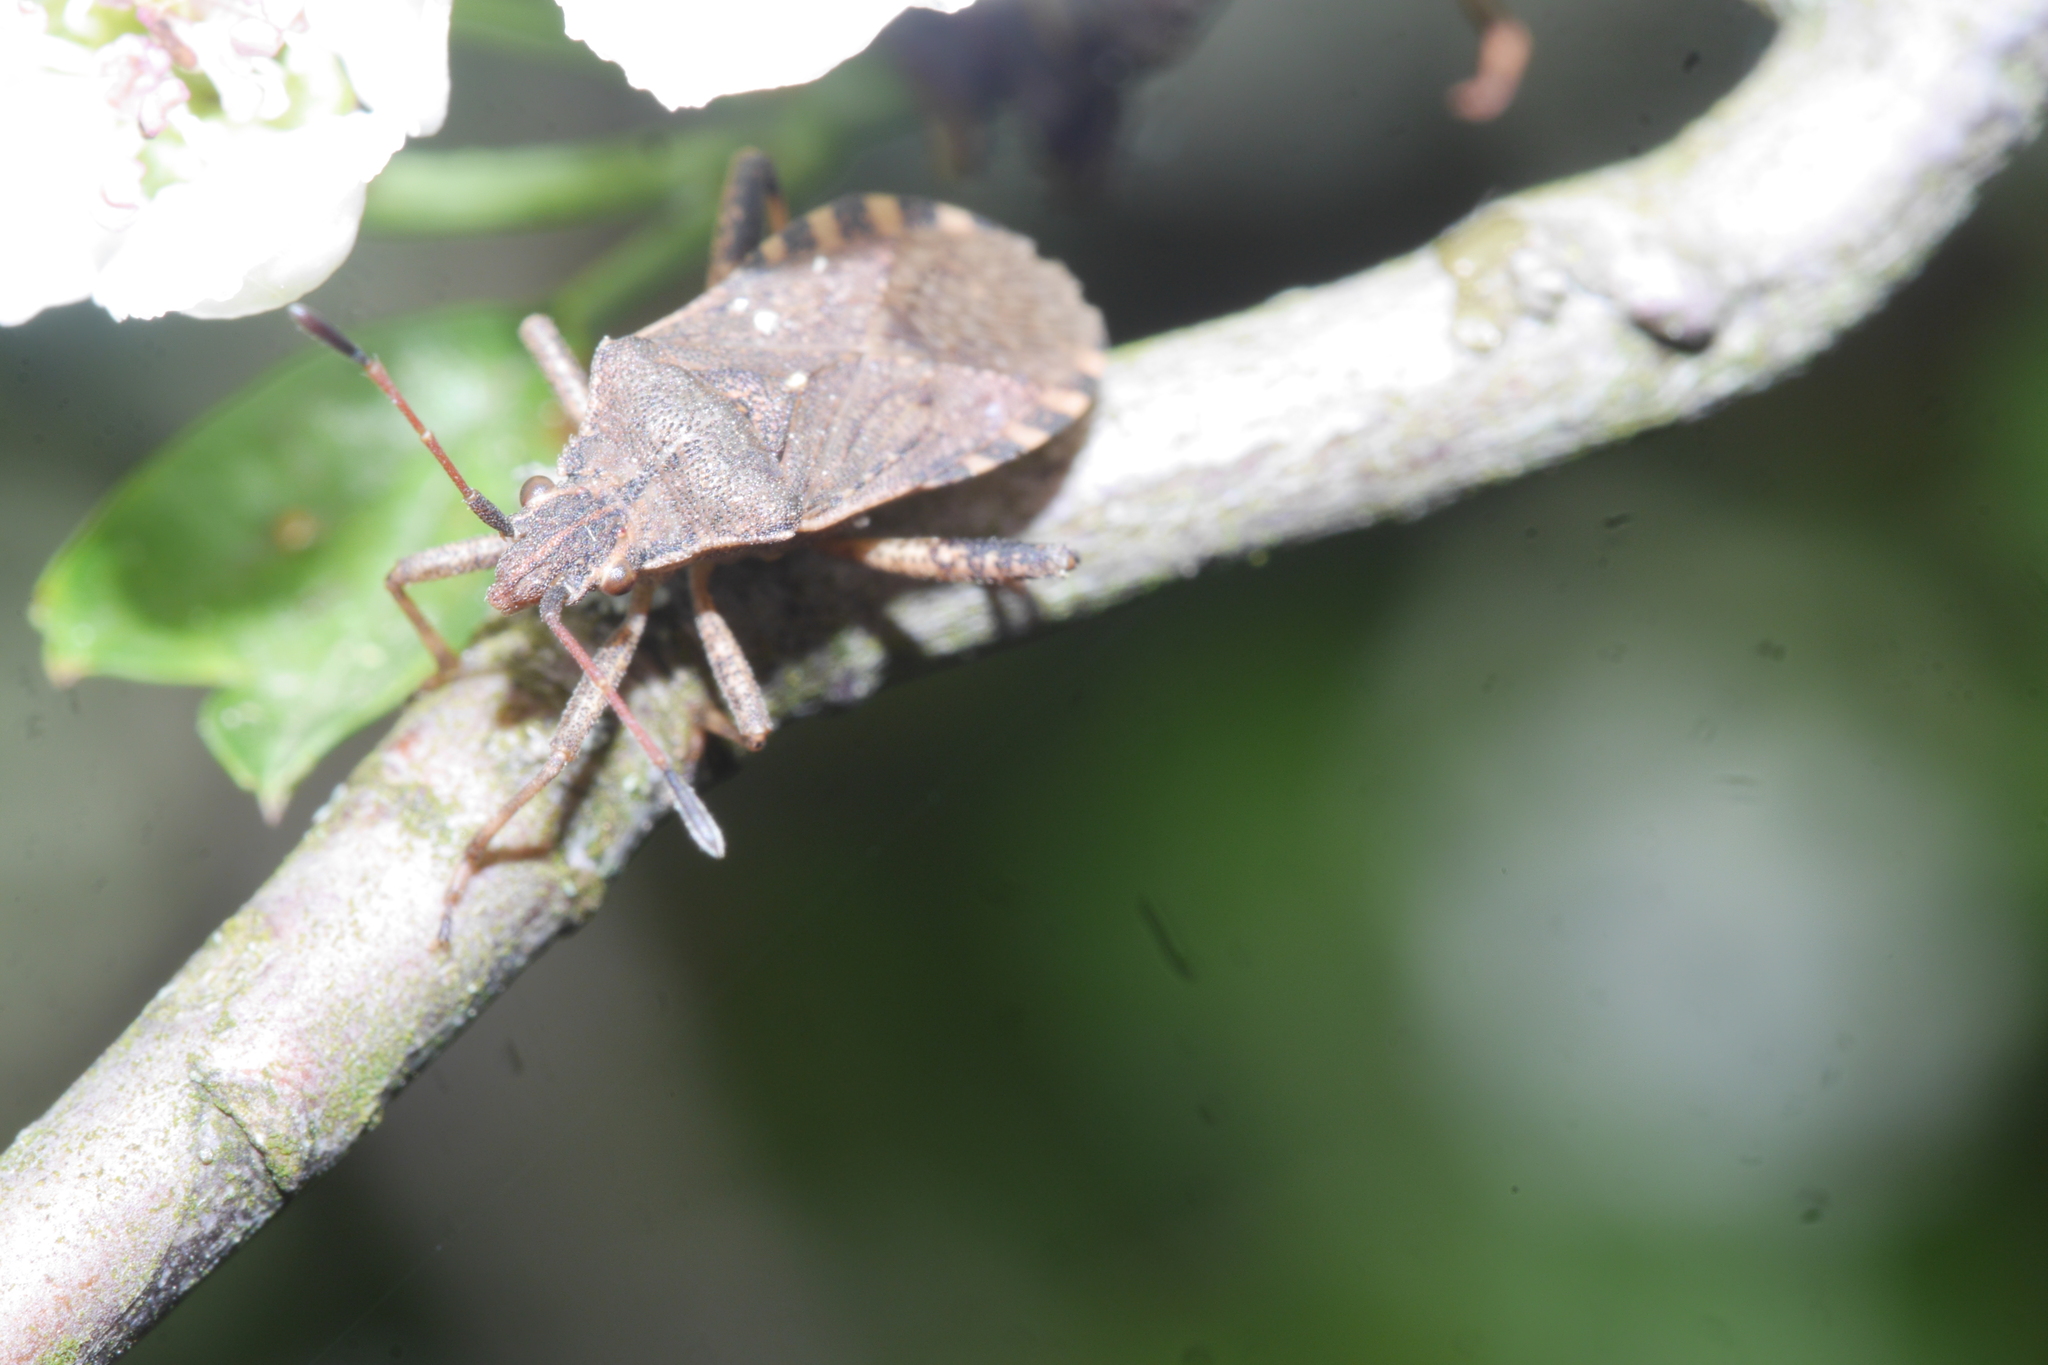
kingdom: Animalia
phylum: Arthropoda
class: Insecta
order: Hemiptera
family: Coreidae
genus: Ceraleptus
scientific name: Ceraleptus gracilicornis
